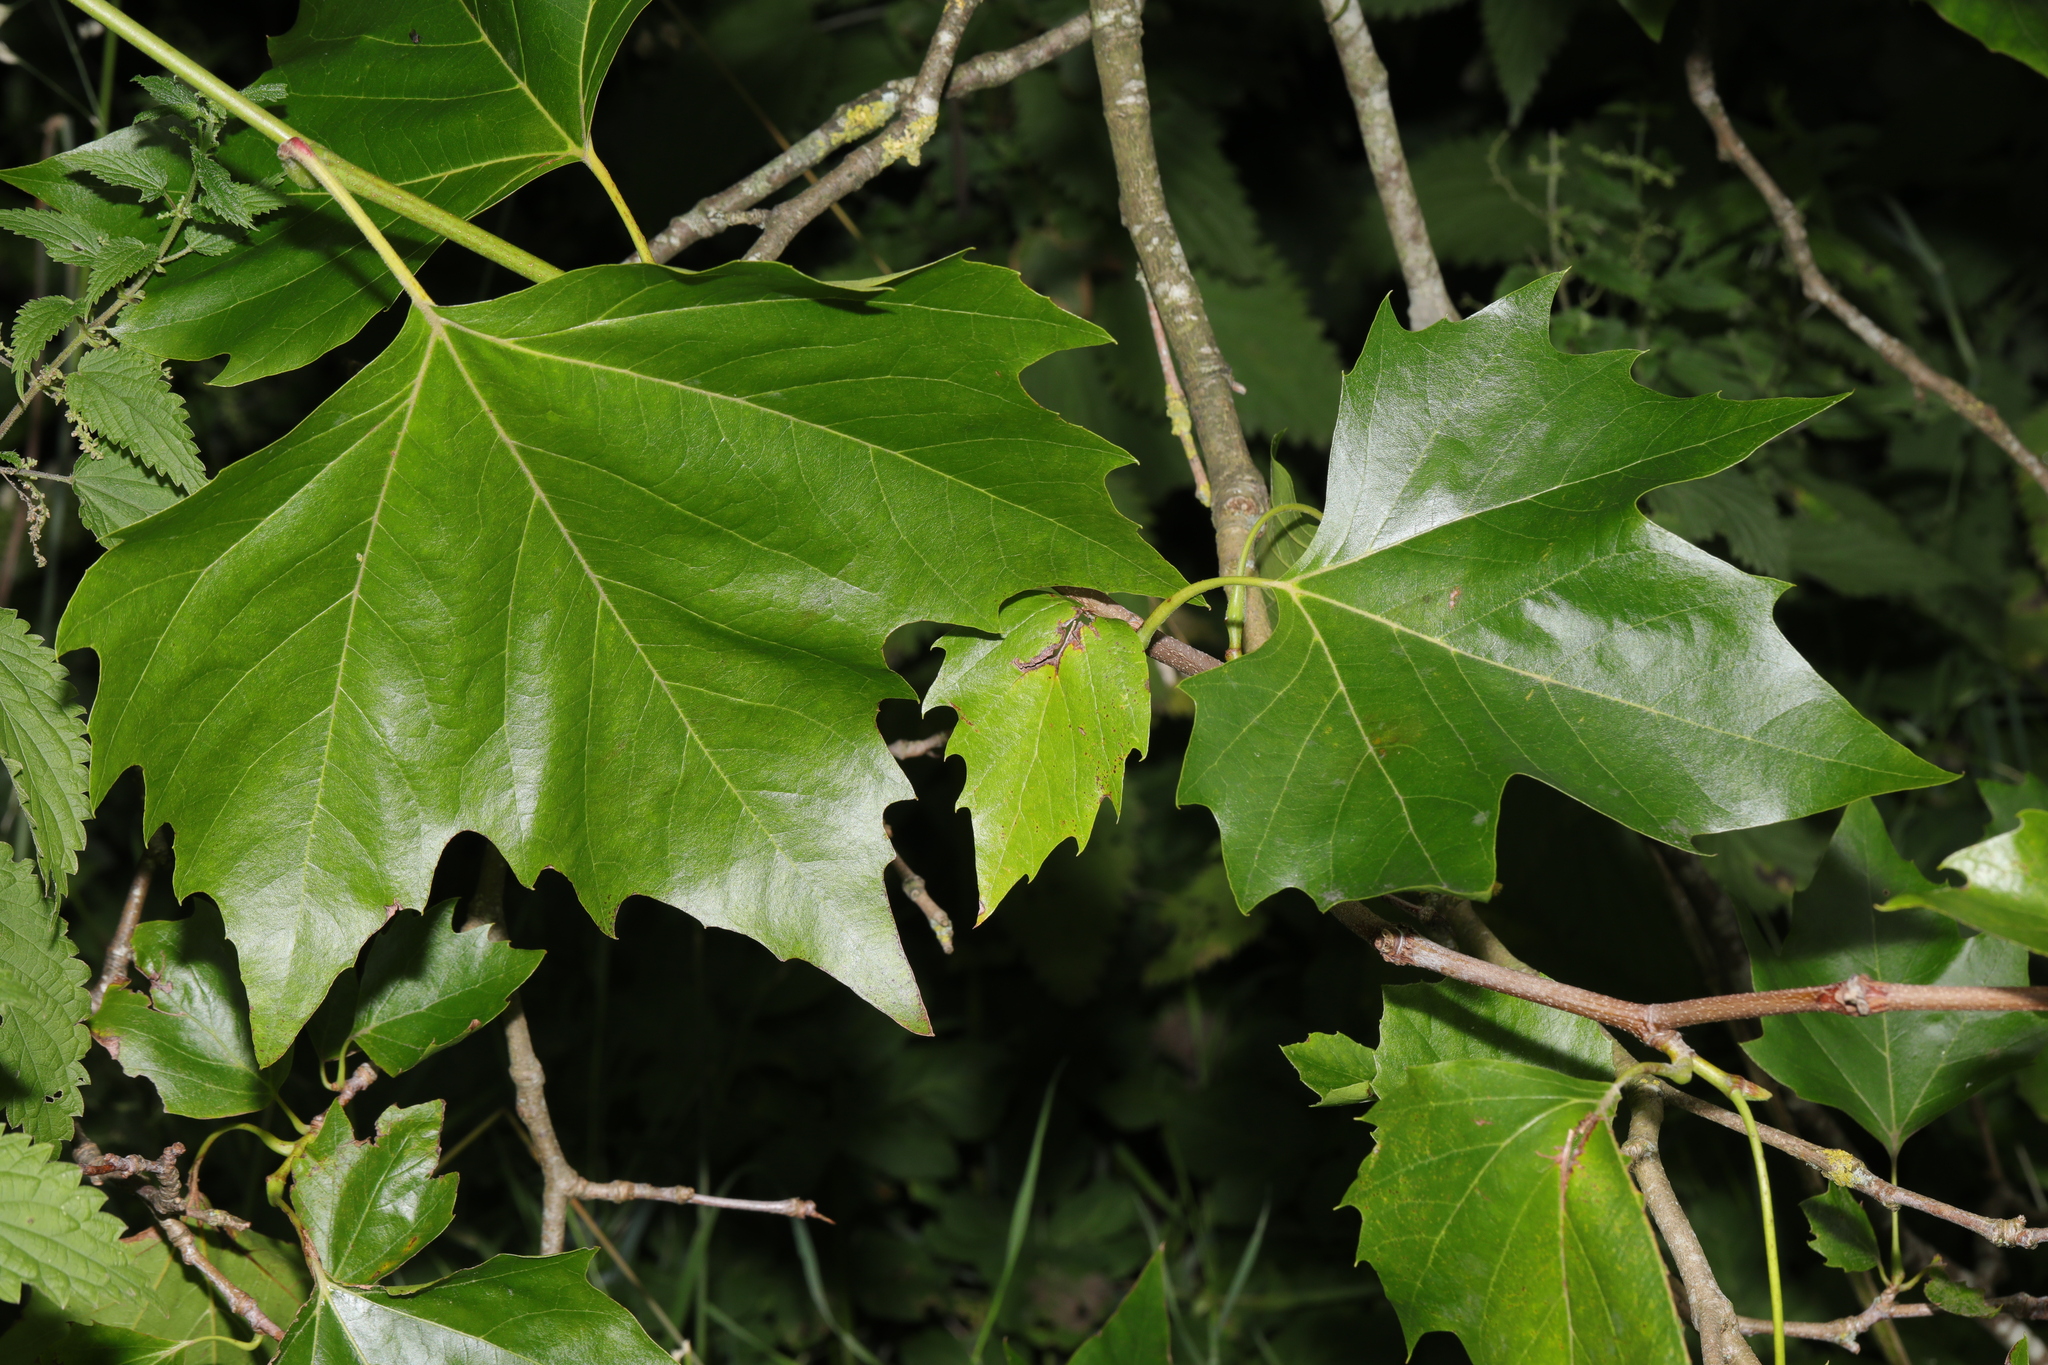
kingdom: Plantae
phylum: Tracheophyta
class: Magnoliopsida
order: Proteales
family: Platanaceae
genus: Platanus
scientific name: Platanus hispanica
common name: London plane
